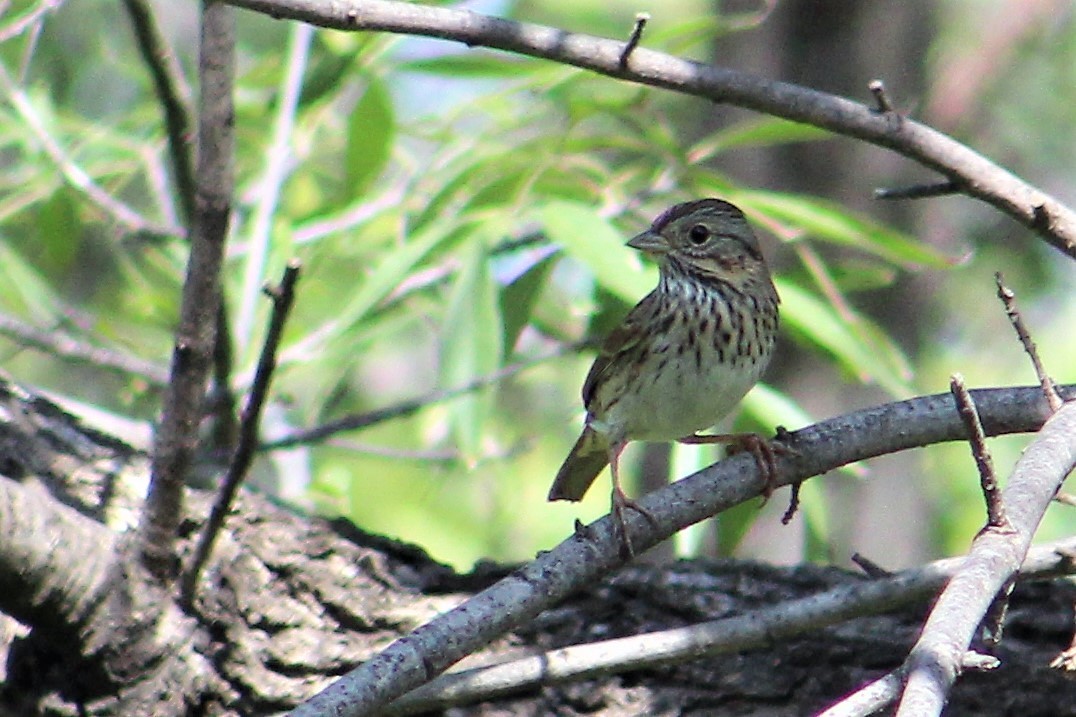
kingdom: Animalia
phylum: Chordata
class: Aves
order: Passeriformes
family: Passerellidae
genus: Melospiza
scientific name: Melospiza lincolnii
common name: Lincoln's sparrow
